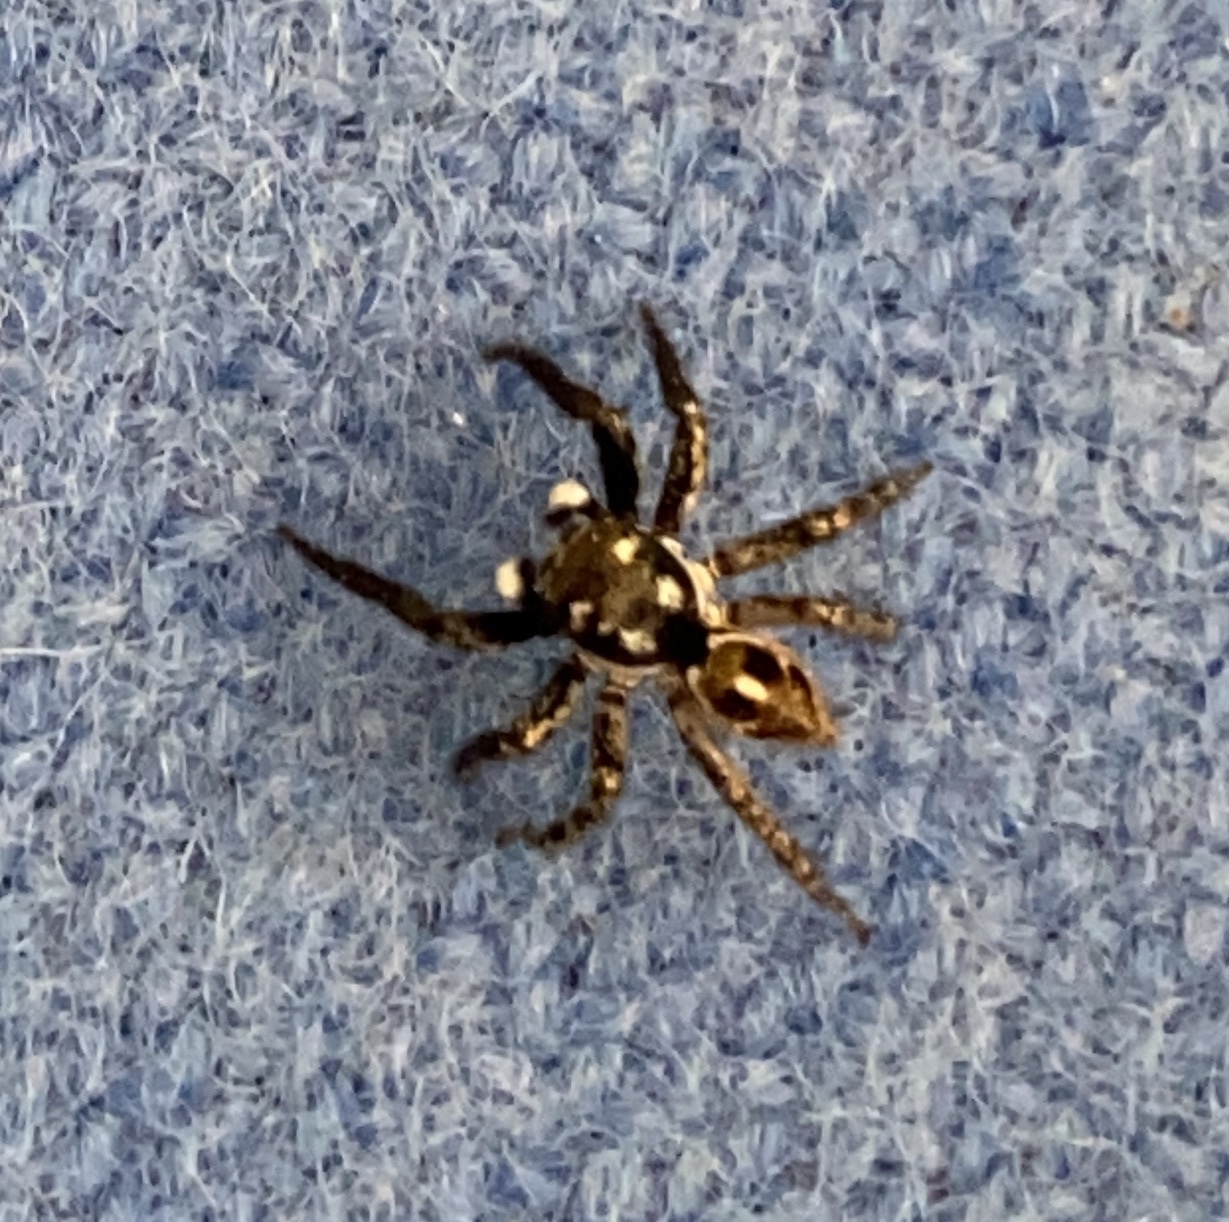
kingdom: Animalia
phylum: Arthropoda
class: Arachnida
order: Araneae
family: Salticidae
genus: Anasaitis
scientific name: Anasaitis canosa
